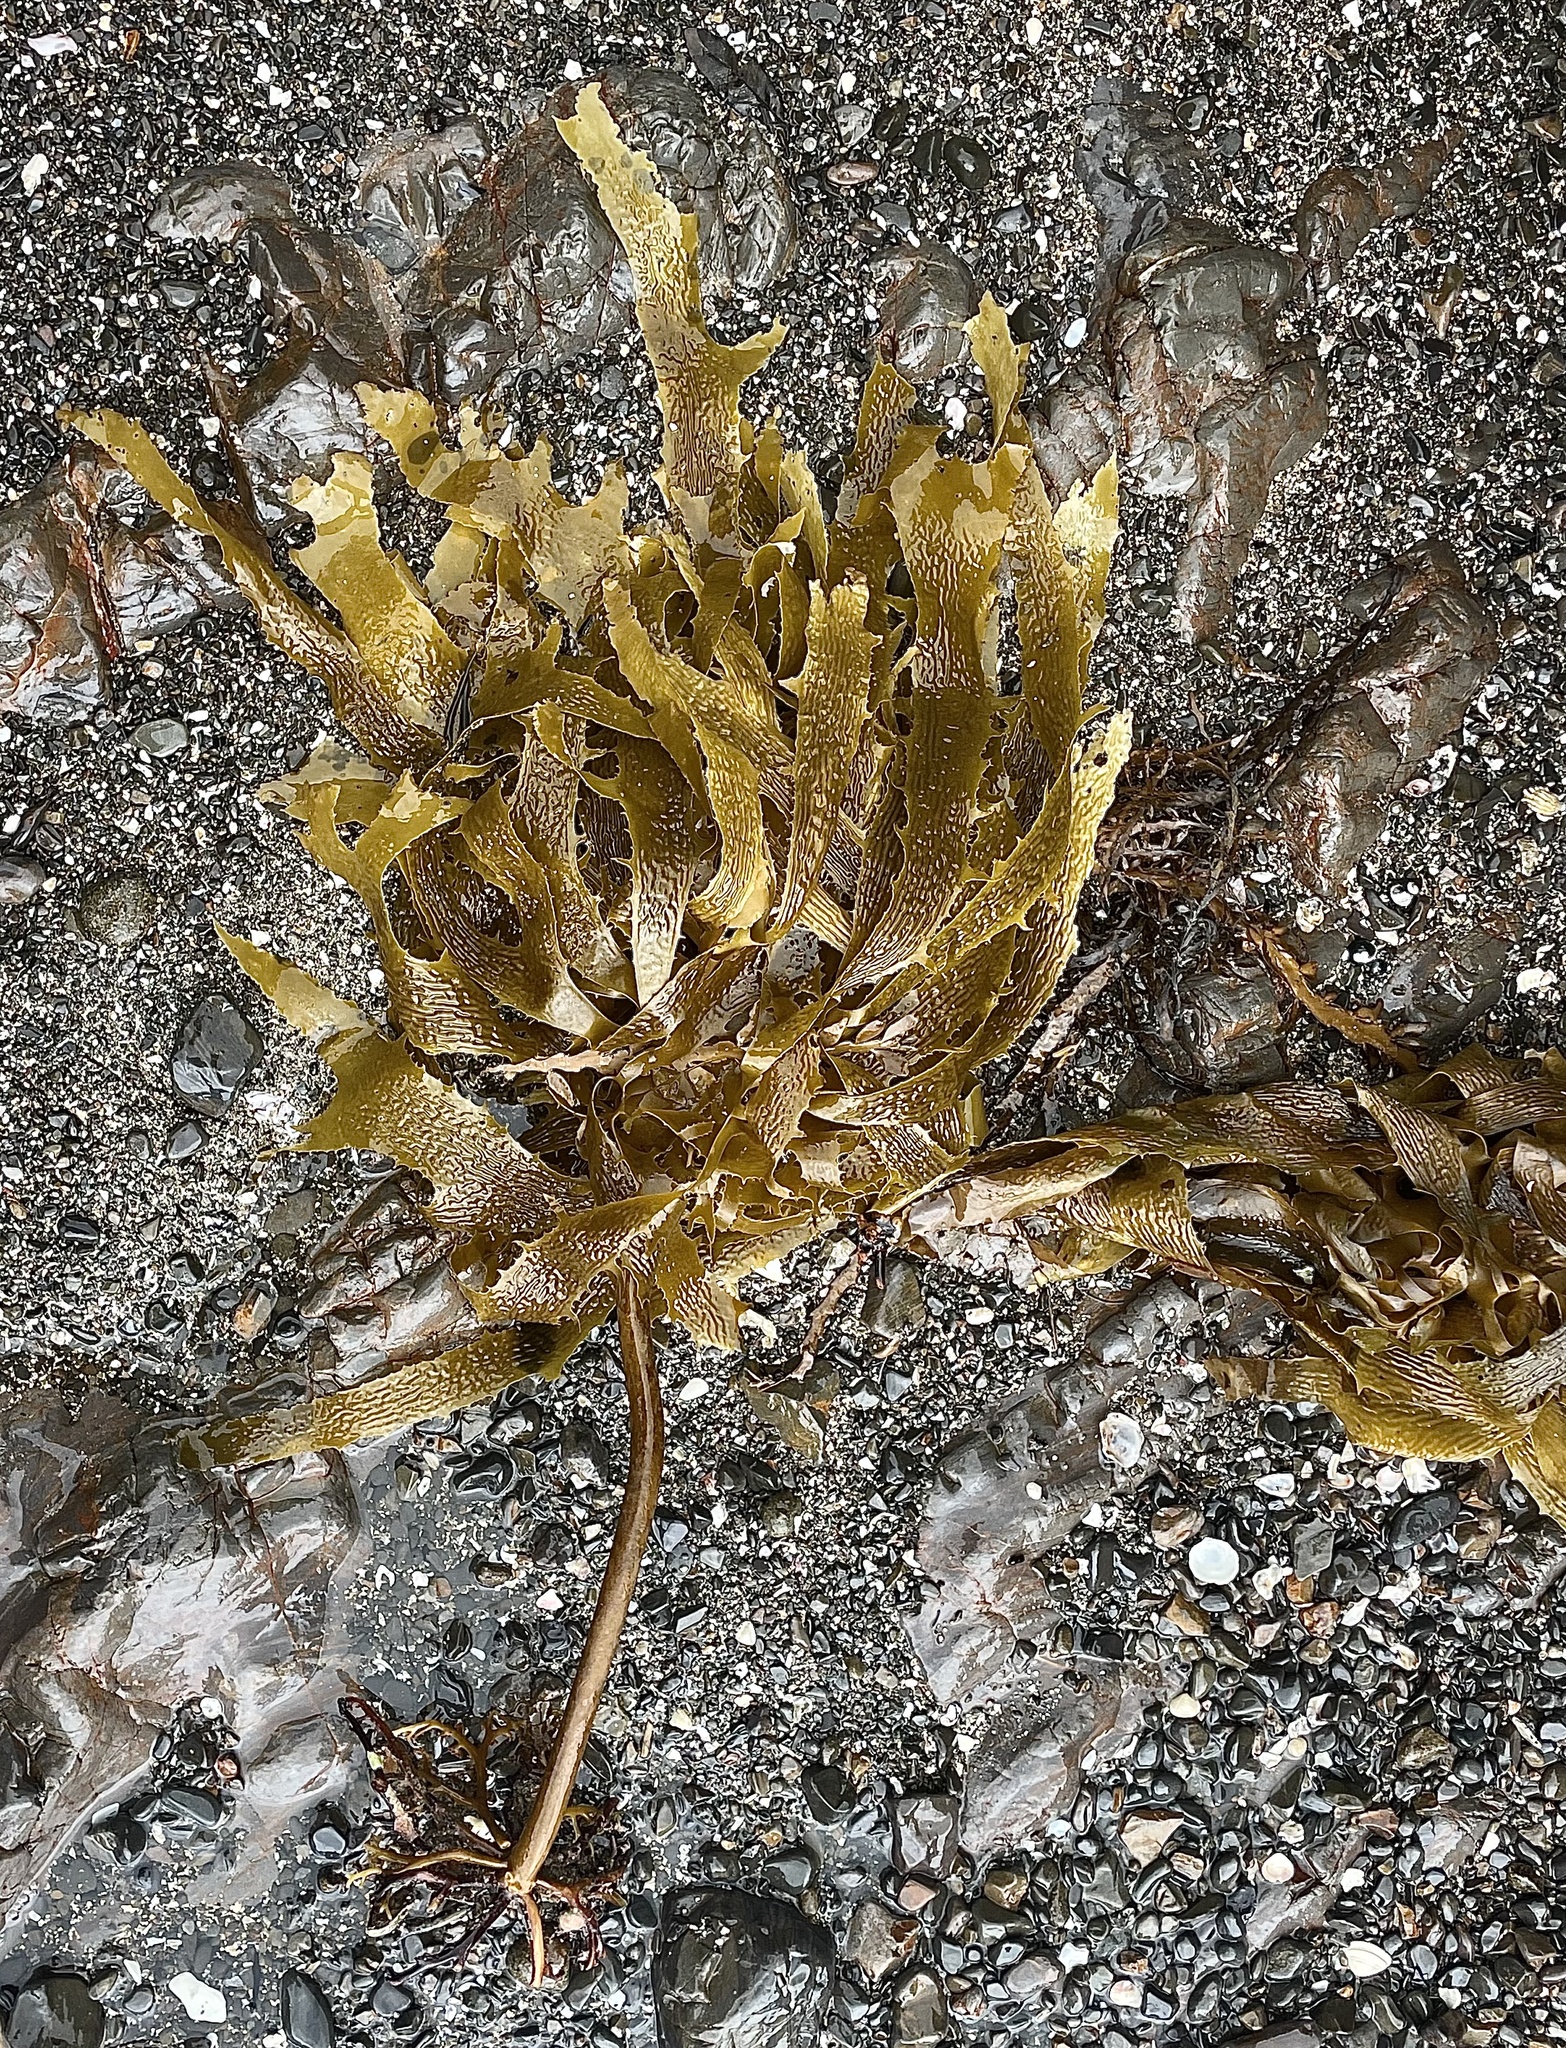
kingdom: Chromista
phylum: Ochrophyta
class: Phaeophyceae
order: Laminariales
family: Lessoniaceae
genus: Ecklonia
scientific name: Ecklonia radiata
